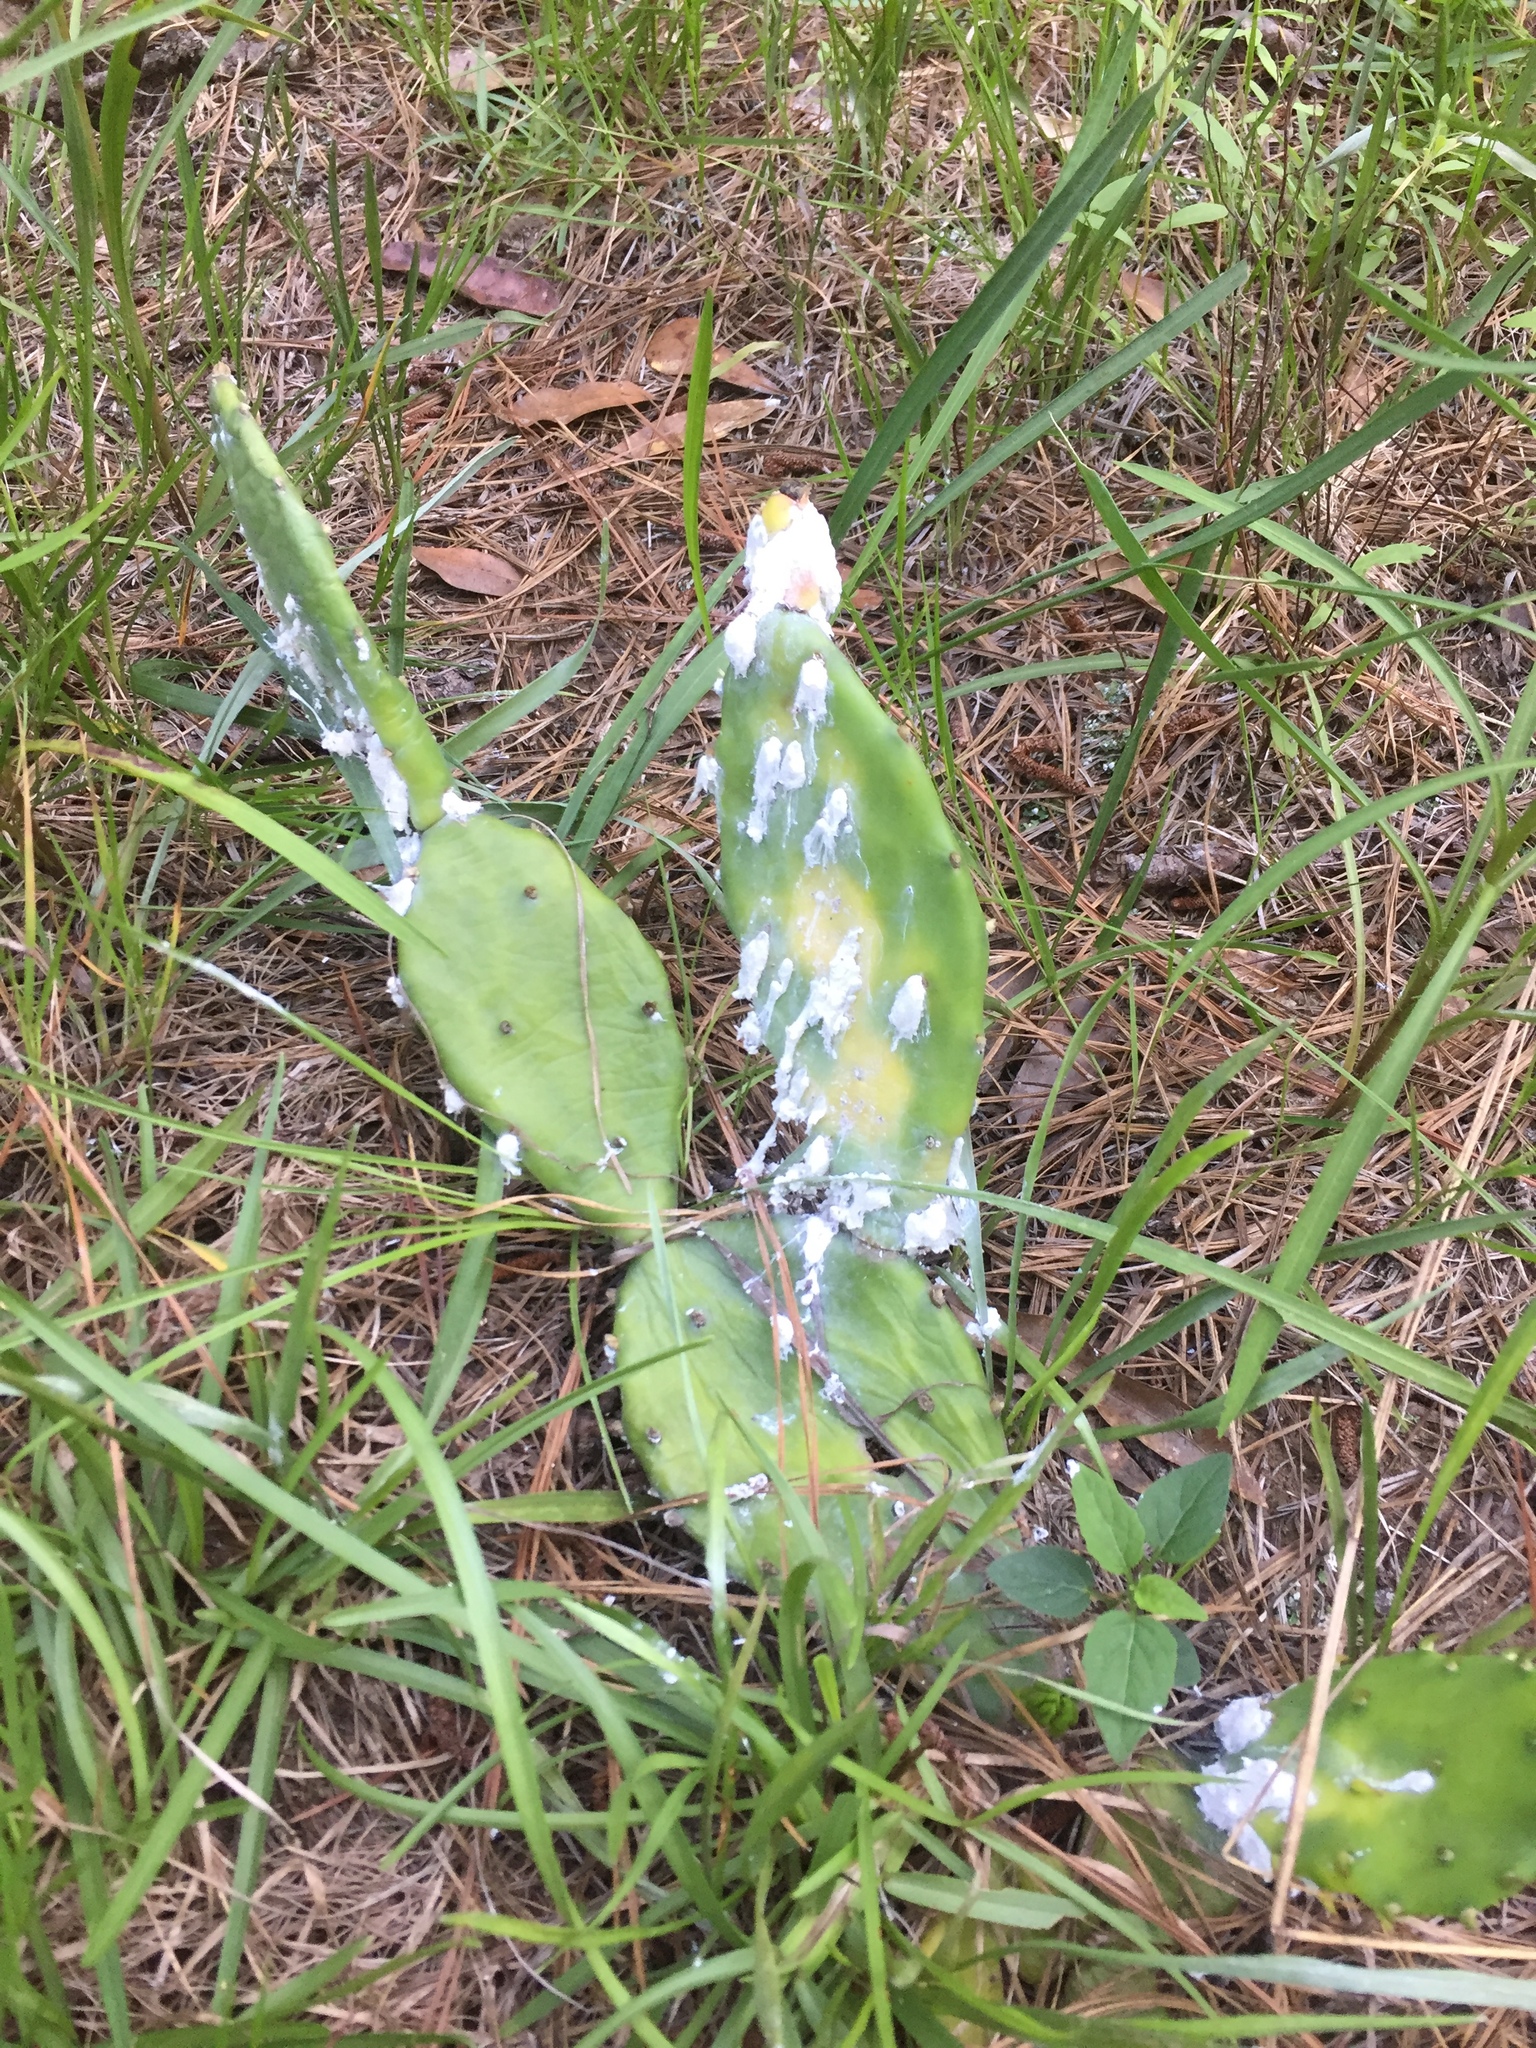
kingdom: Plantae
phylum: Tracheophyta
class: Magnoliopsida
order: Caryophyllales
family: Cactaceae
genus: Opuntia
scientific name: Opuntia humifusa
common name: Eastern prickly-pear
